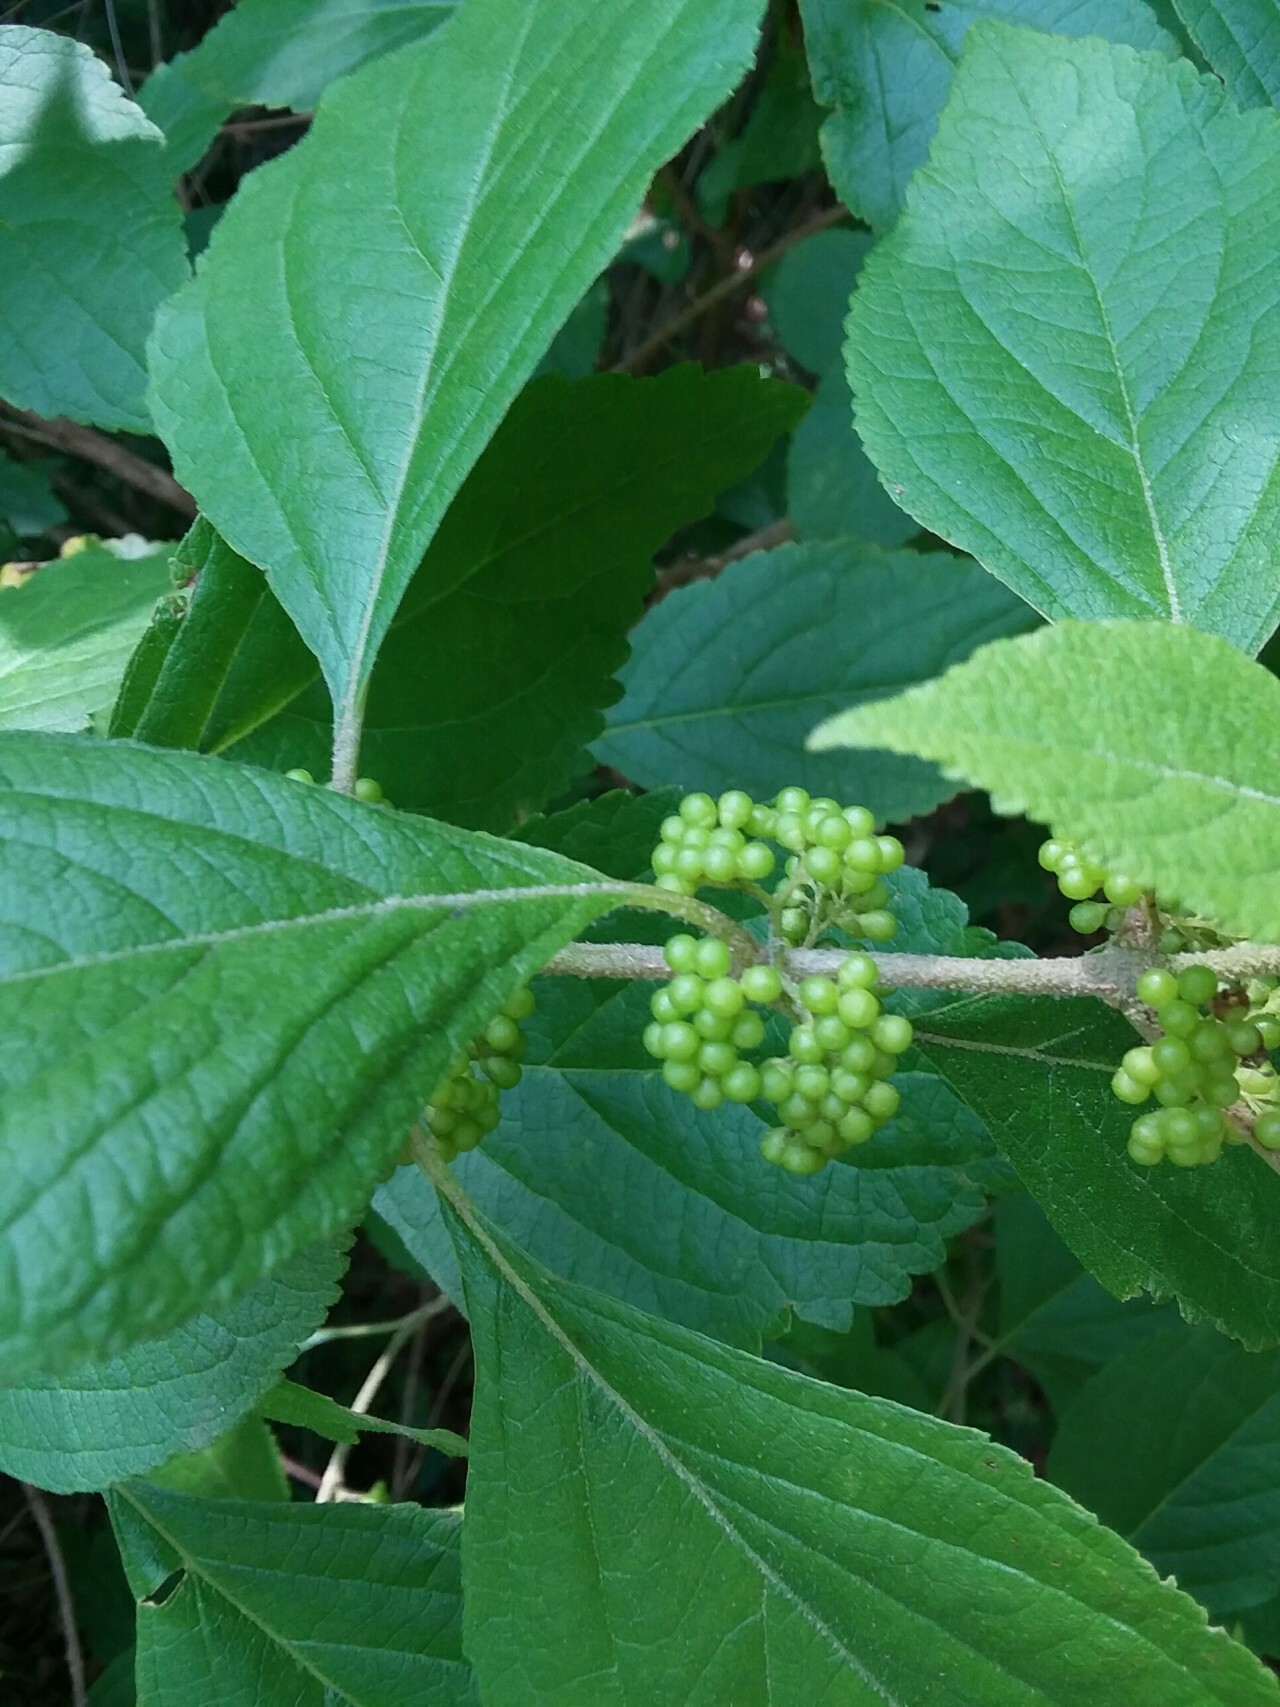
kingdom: Plantae
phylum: Tracheophyta
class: Magnoliopsida
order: Lamiales
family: Lamiaceae
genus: Callicarpa
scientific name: Callicarpa americana
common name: American beautyberry
